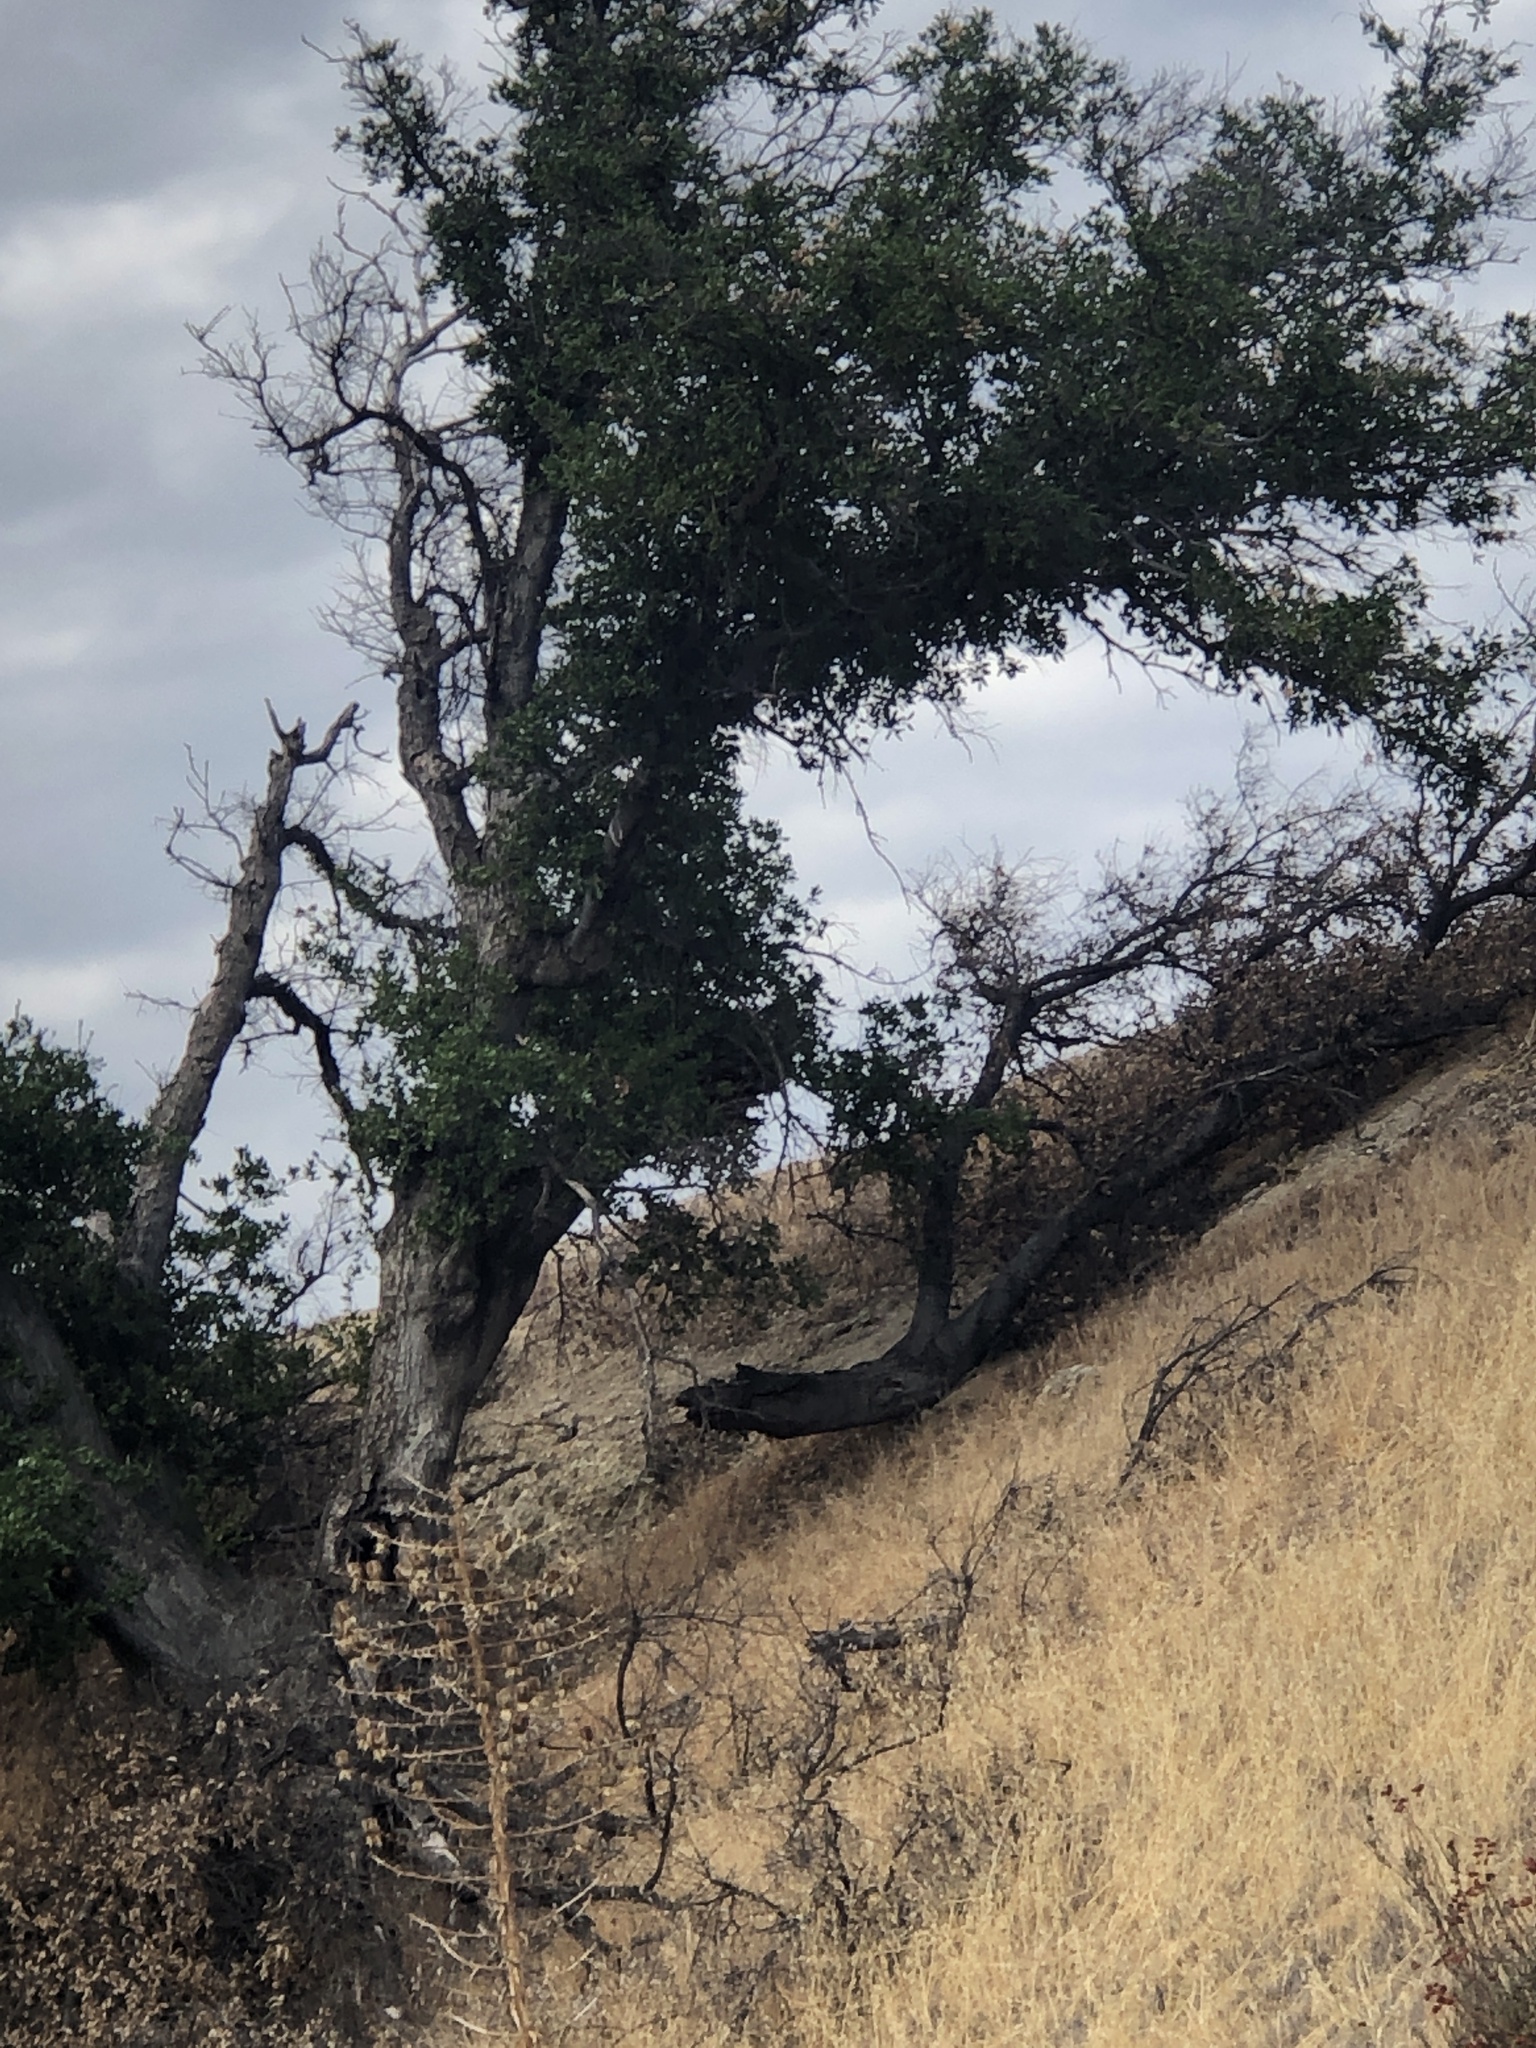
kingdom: Plantae
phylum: Tracheophyta
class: Magnoliopsida
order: Fagales
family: Fagaceae
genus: Quercus
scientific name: Quercus agrifolia
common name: California live oak
